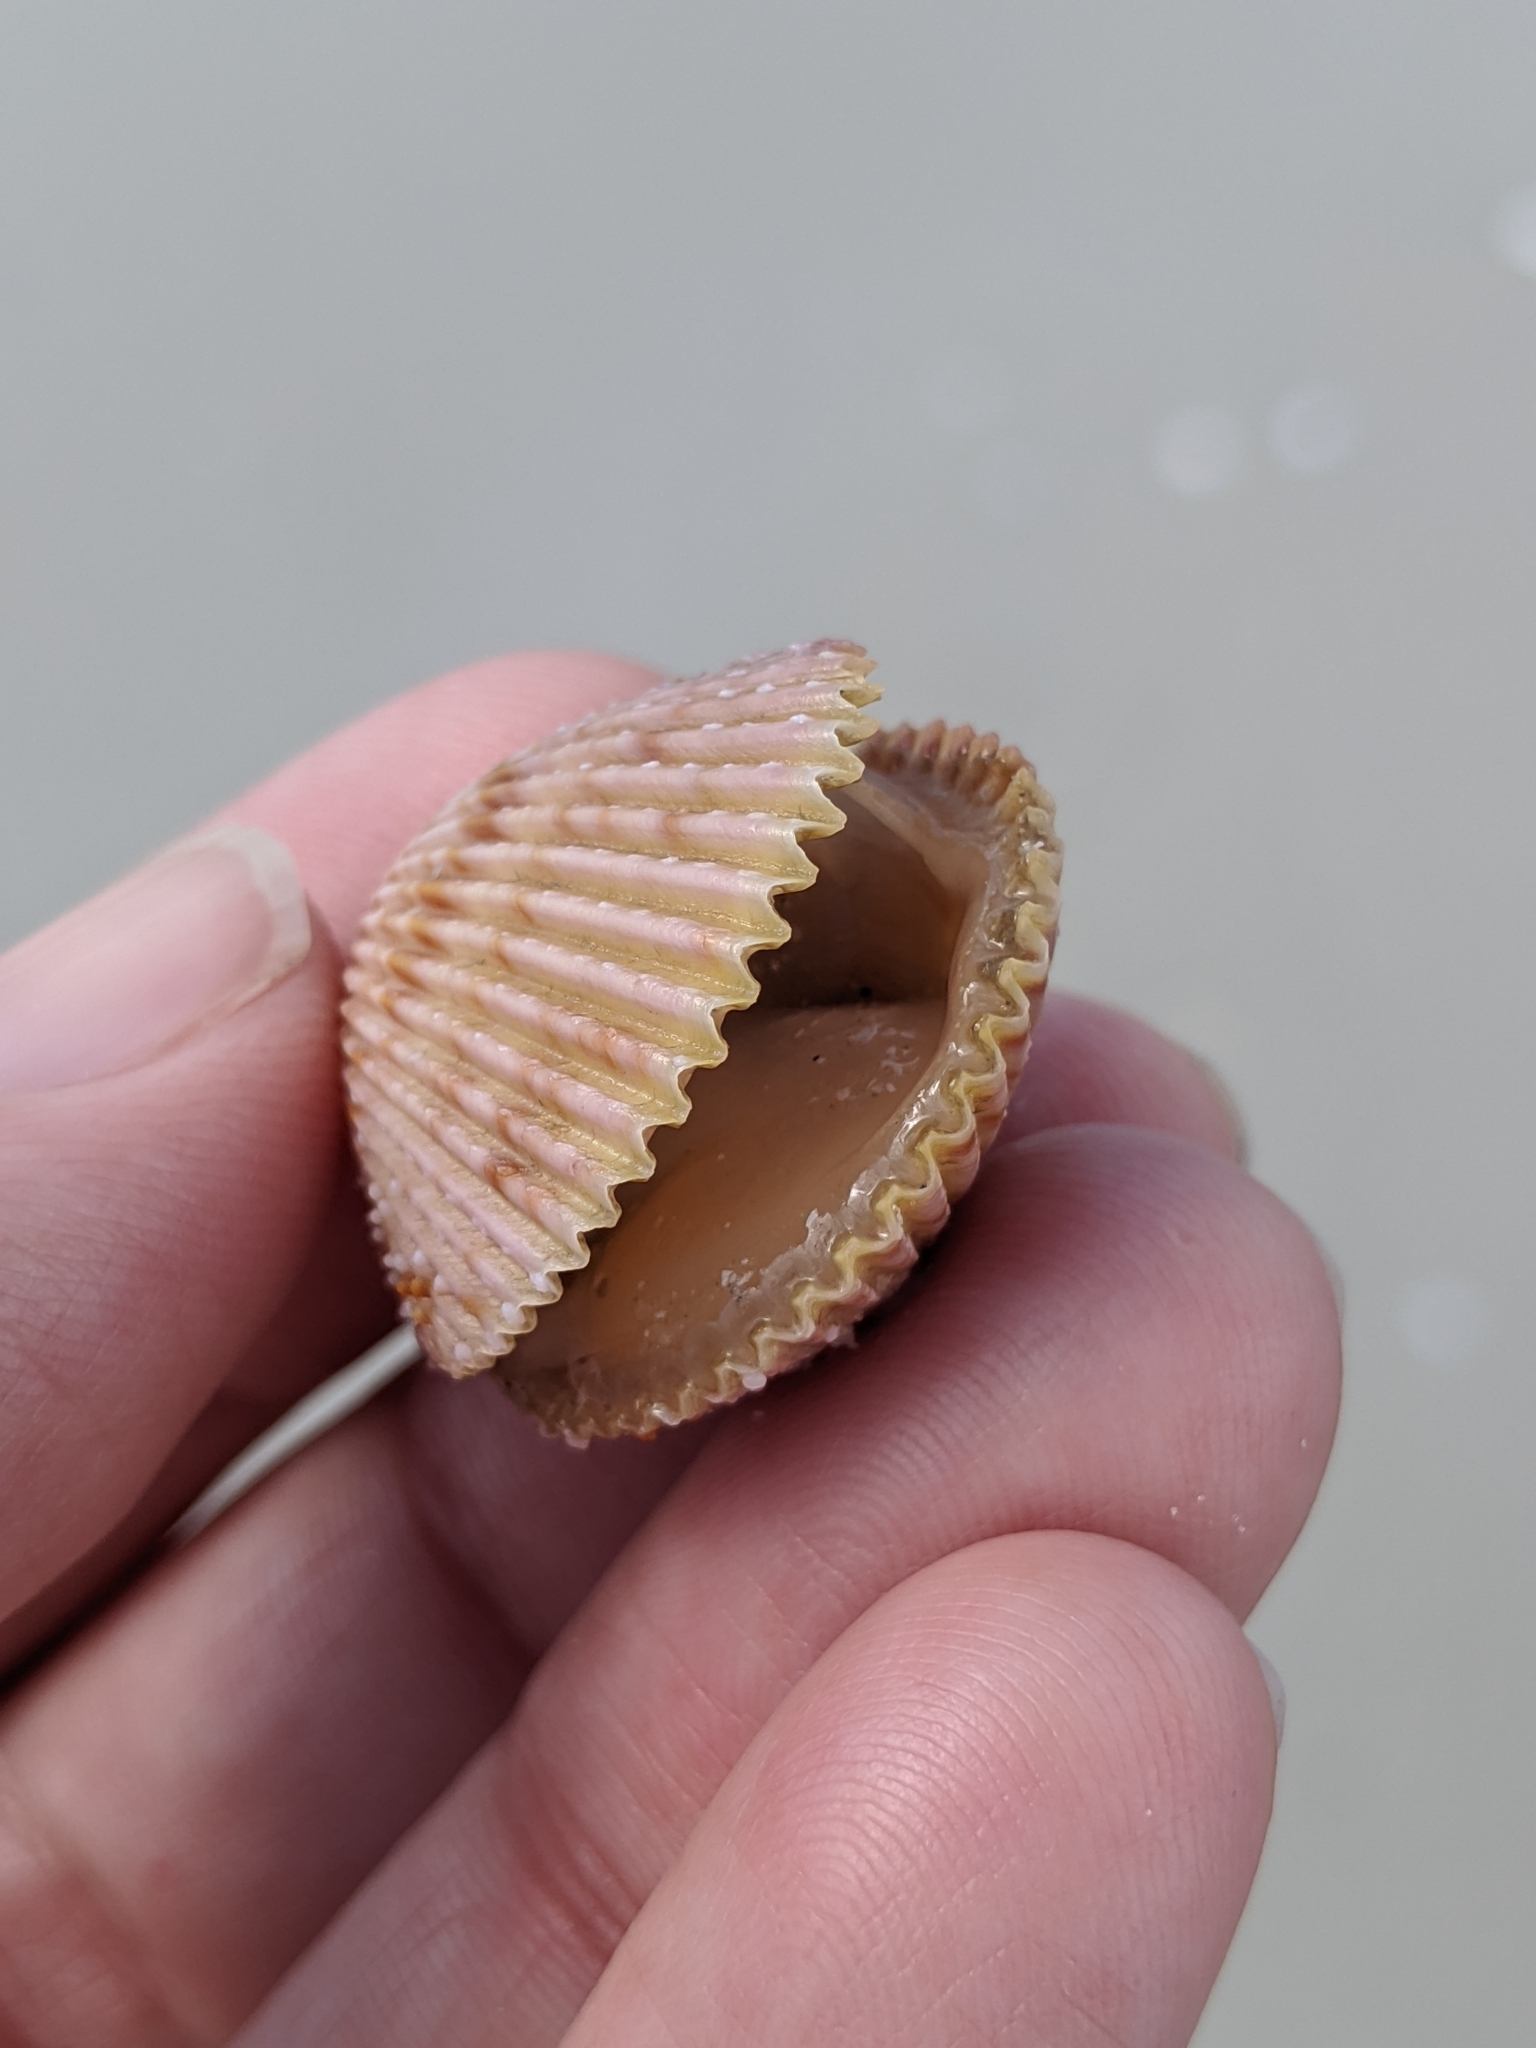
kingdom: Animalia
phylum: Mollusca
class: Bivalvia
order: Cardiida
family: Cardiidae
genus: Trachycardium
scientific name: Trachycardium egmontianum
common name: Florida pricklycockle
